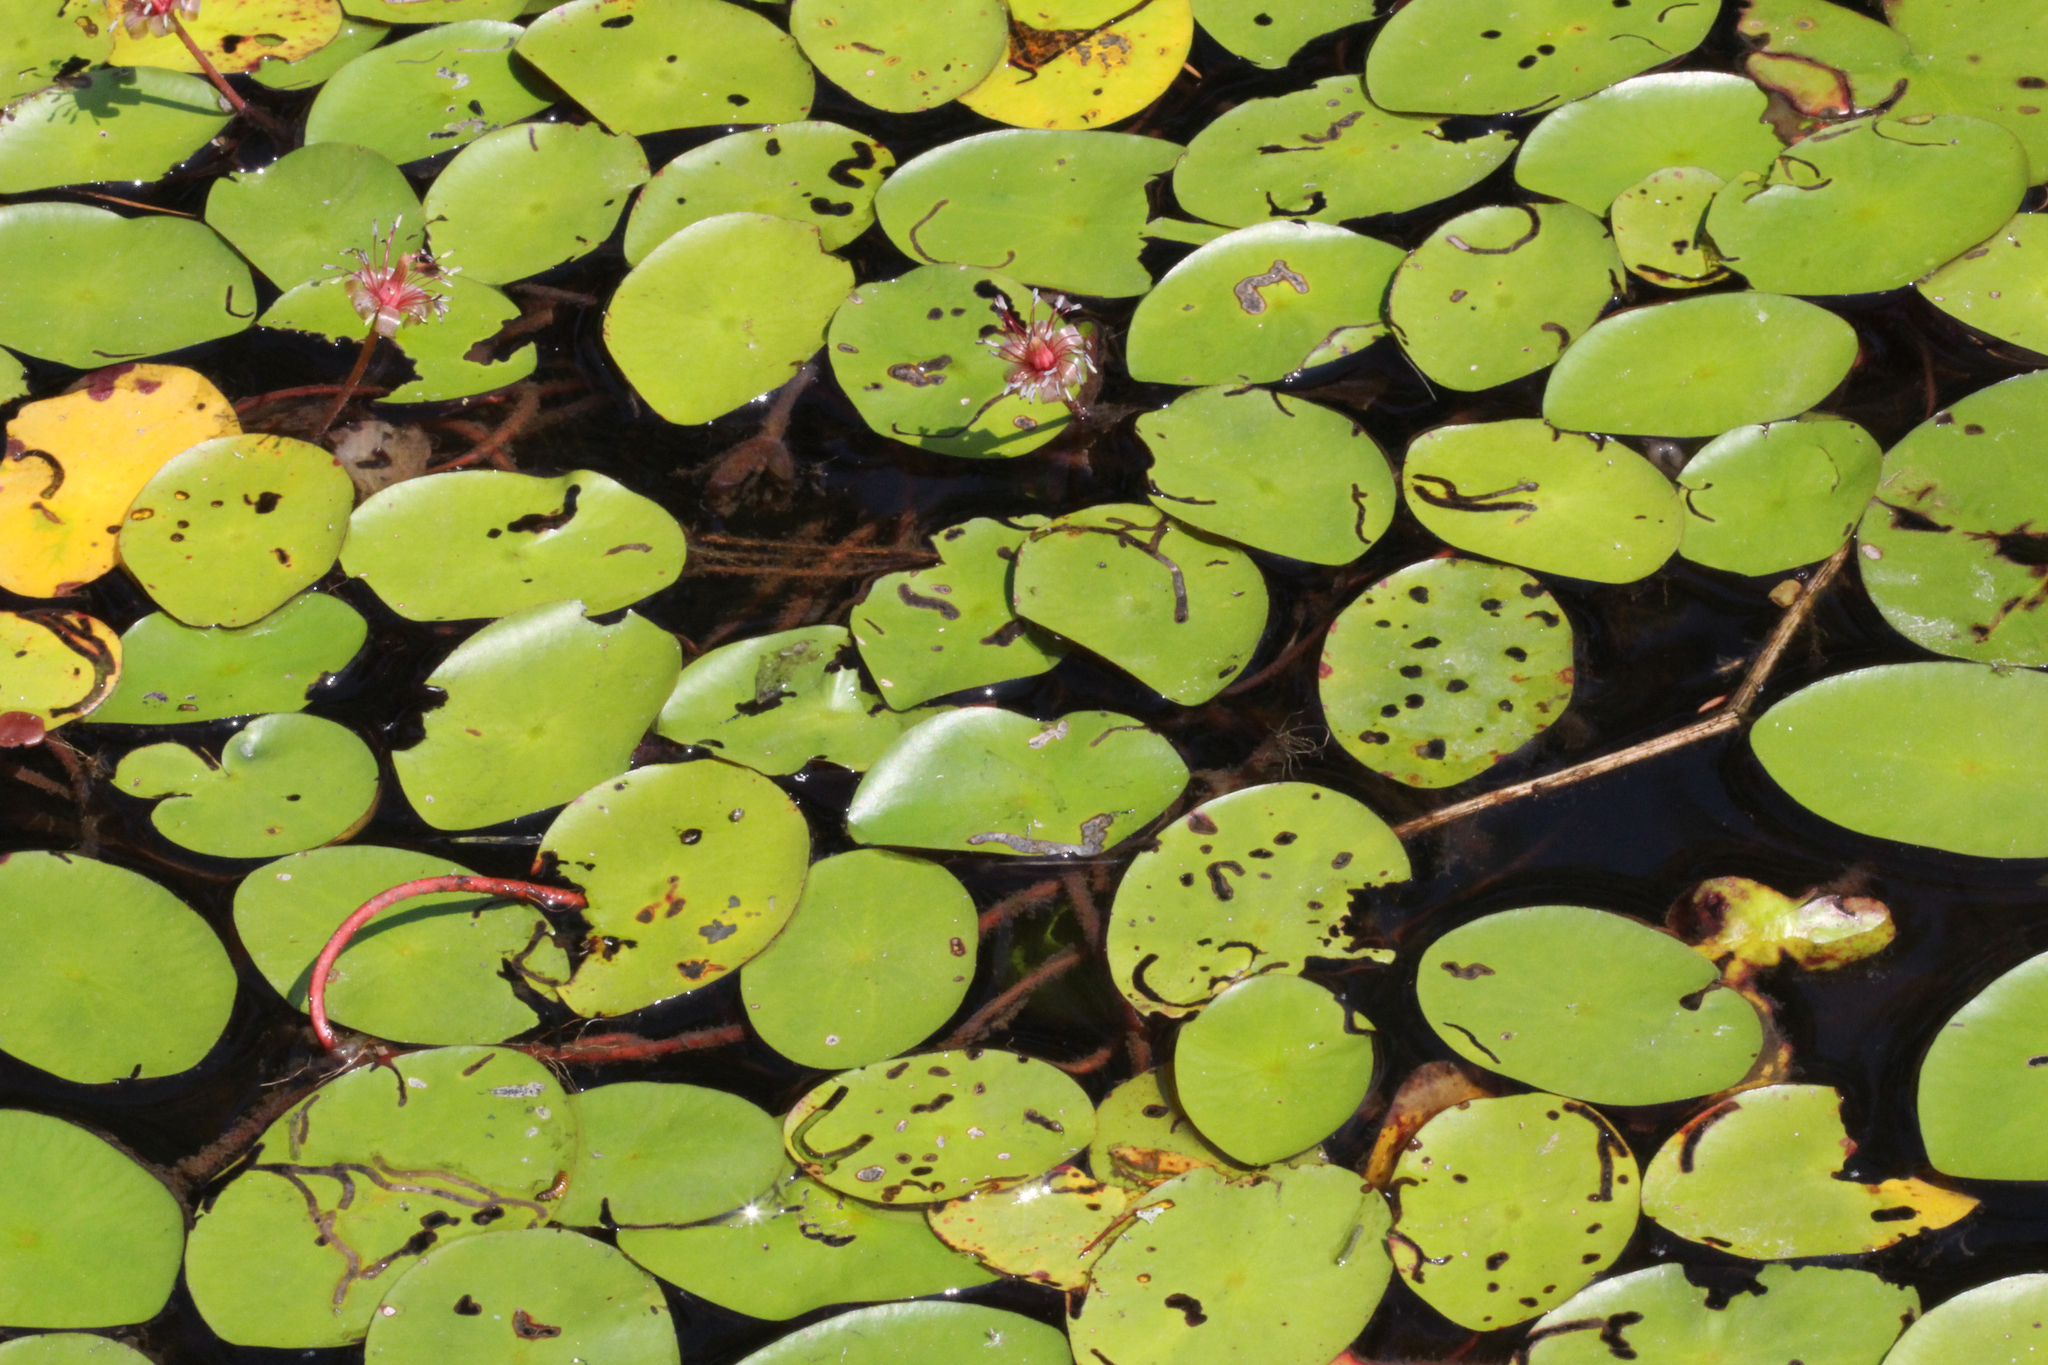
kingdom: Plantae
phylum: Tracheophyta
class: Magnoliopsida
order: Nymphaeales
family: Cabombaceae
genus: Brasenia
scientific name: Brasenia schreberi
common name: Water-shield
